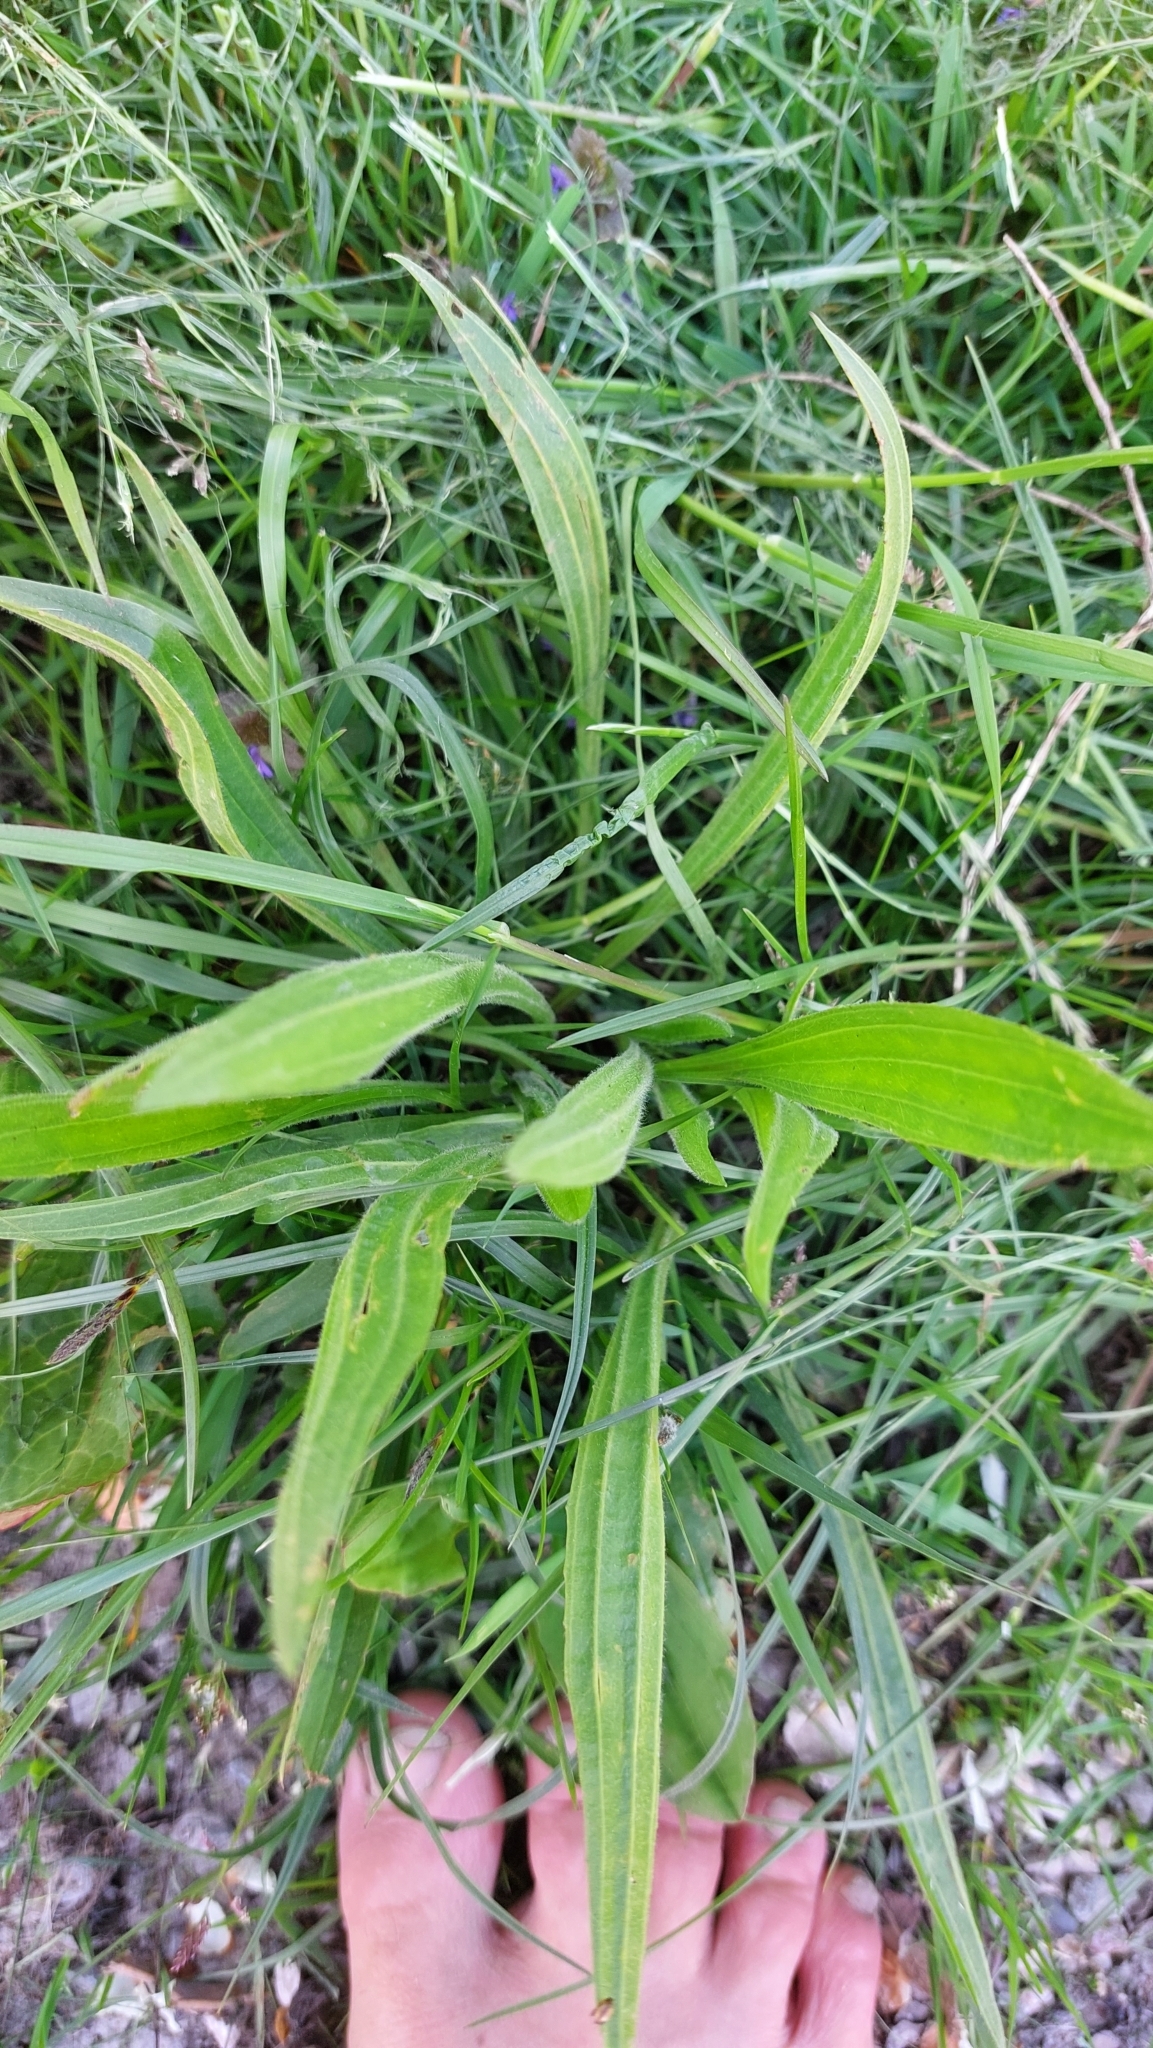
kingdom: Plantae
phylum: Tracheophyta
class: Magnoliopsida
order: Lamiales
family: Plantaginaceae
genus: Plantago
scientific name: Plantago lanceolata
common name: Ribwort plantain
